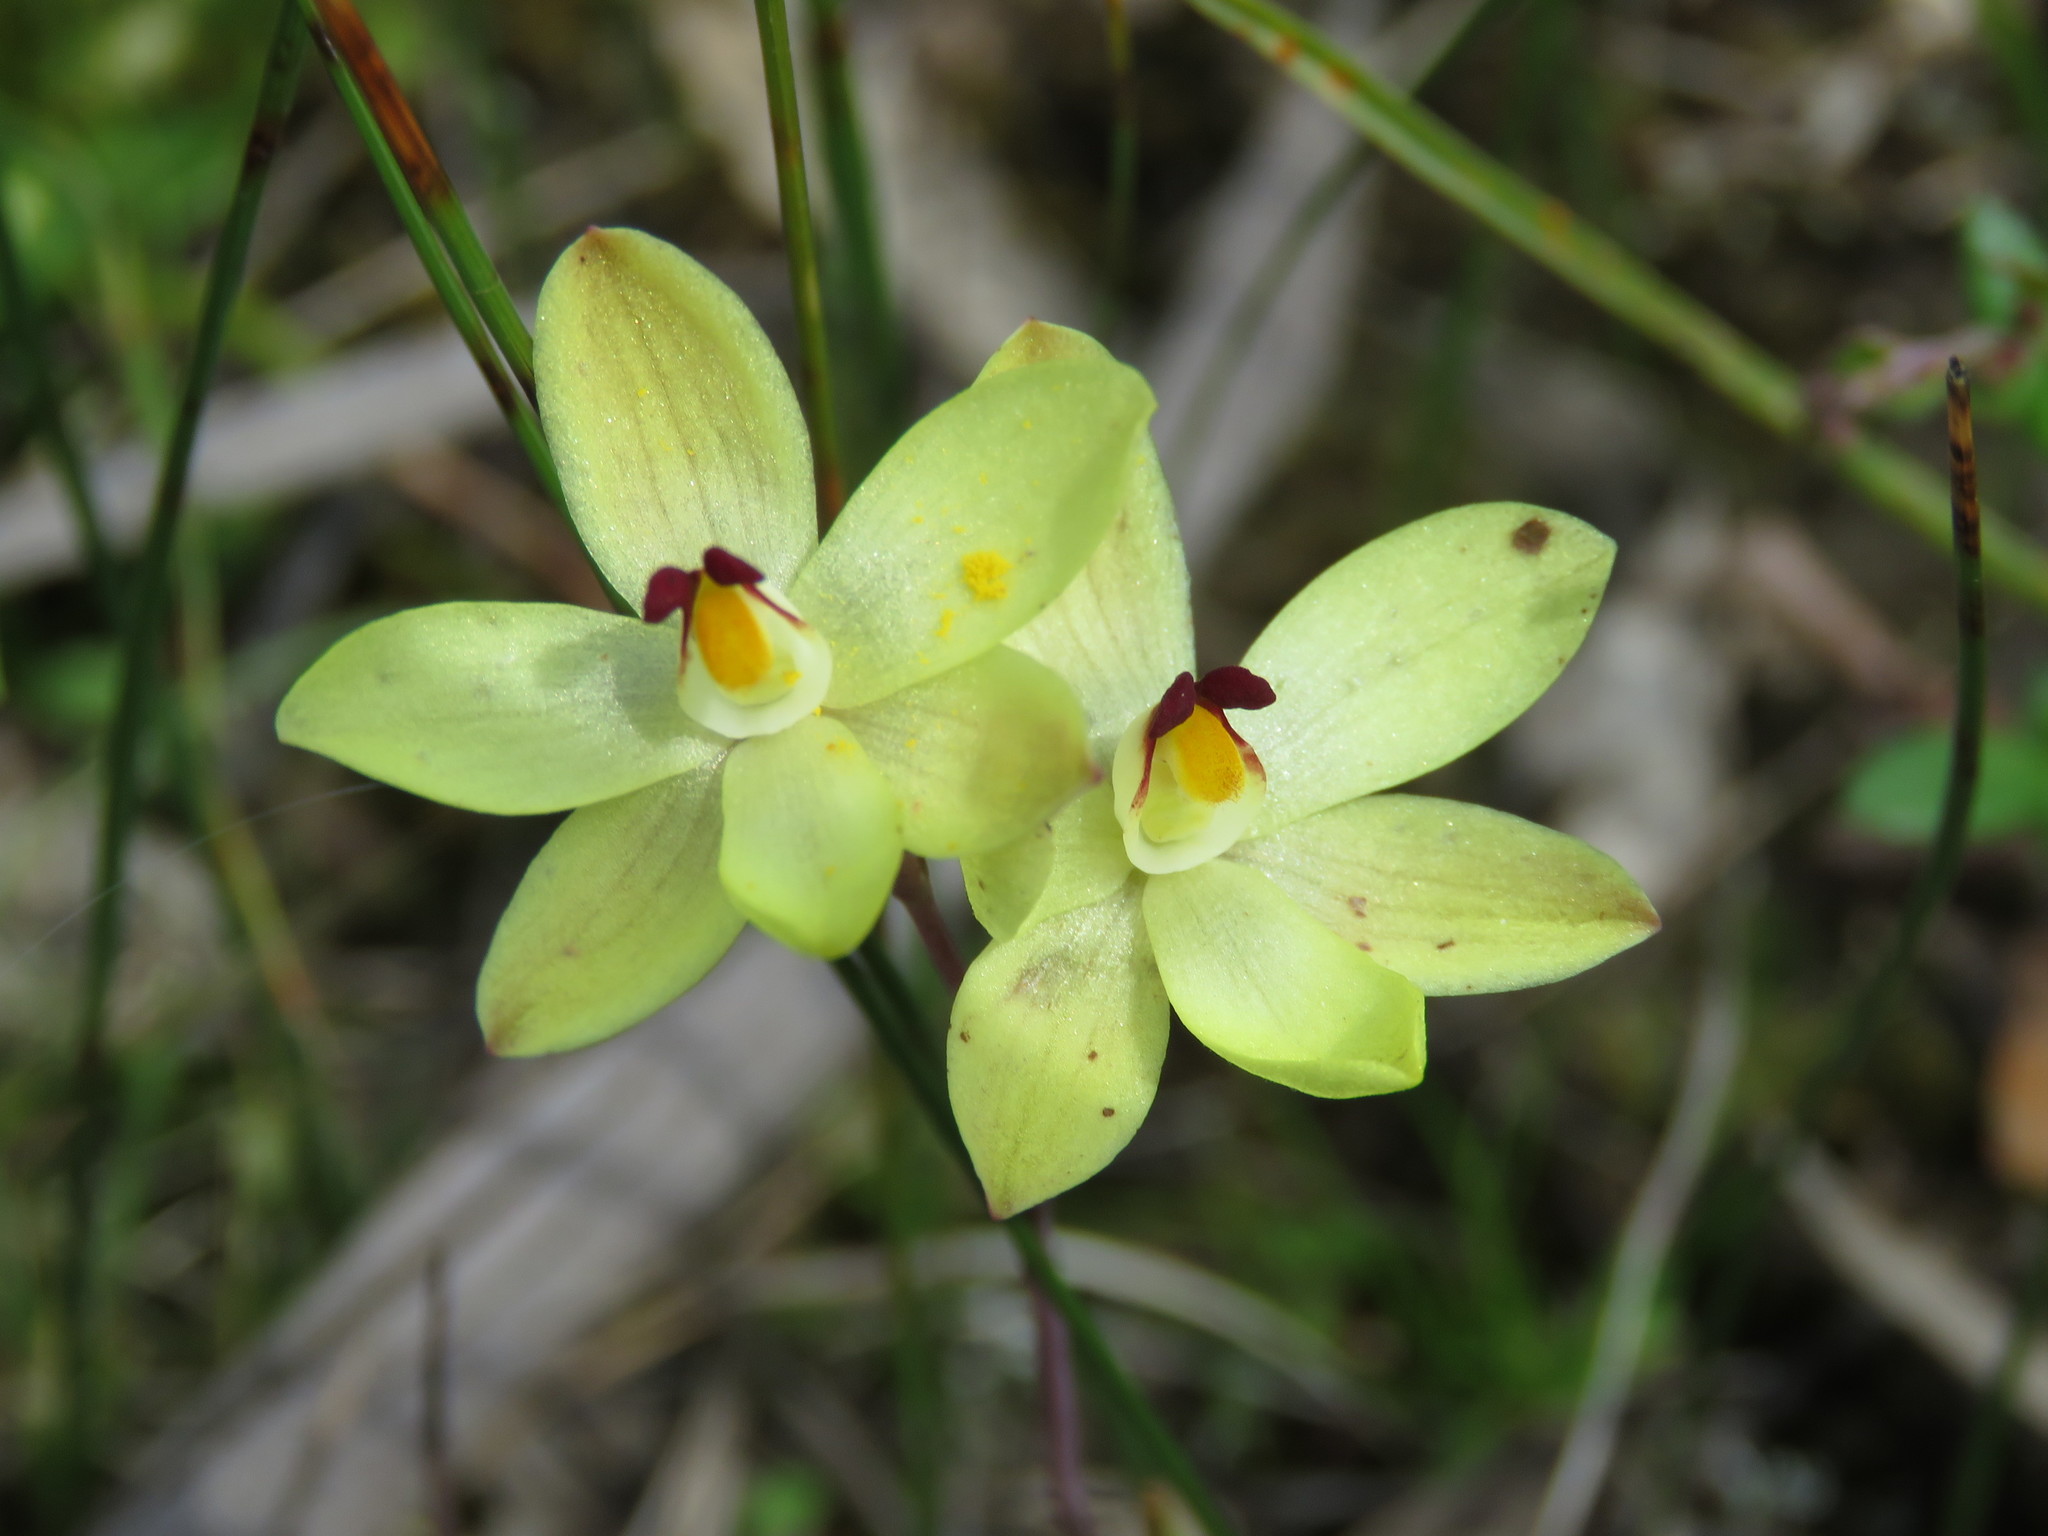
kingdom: Plantae
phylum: Tracheophyta
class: Liliopsida
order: Asparagales
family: Orchidaceae
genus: Thelymitra
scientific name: Thelymitra antennifera
